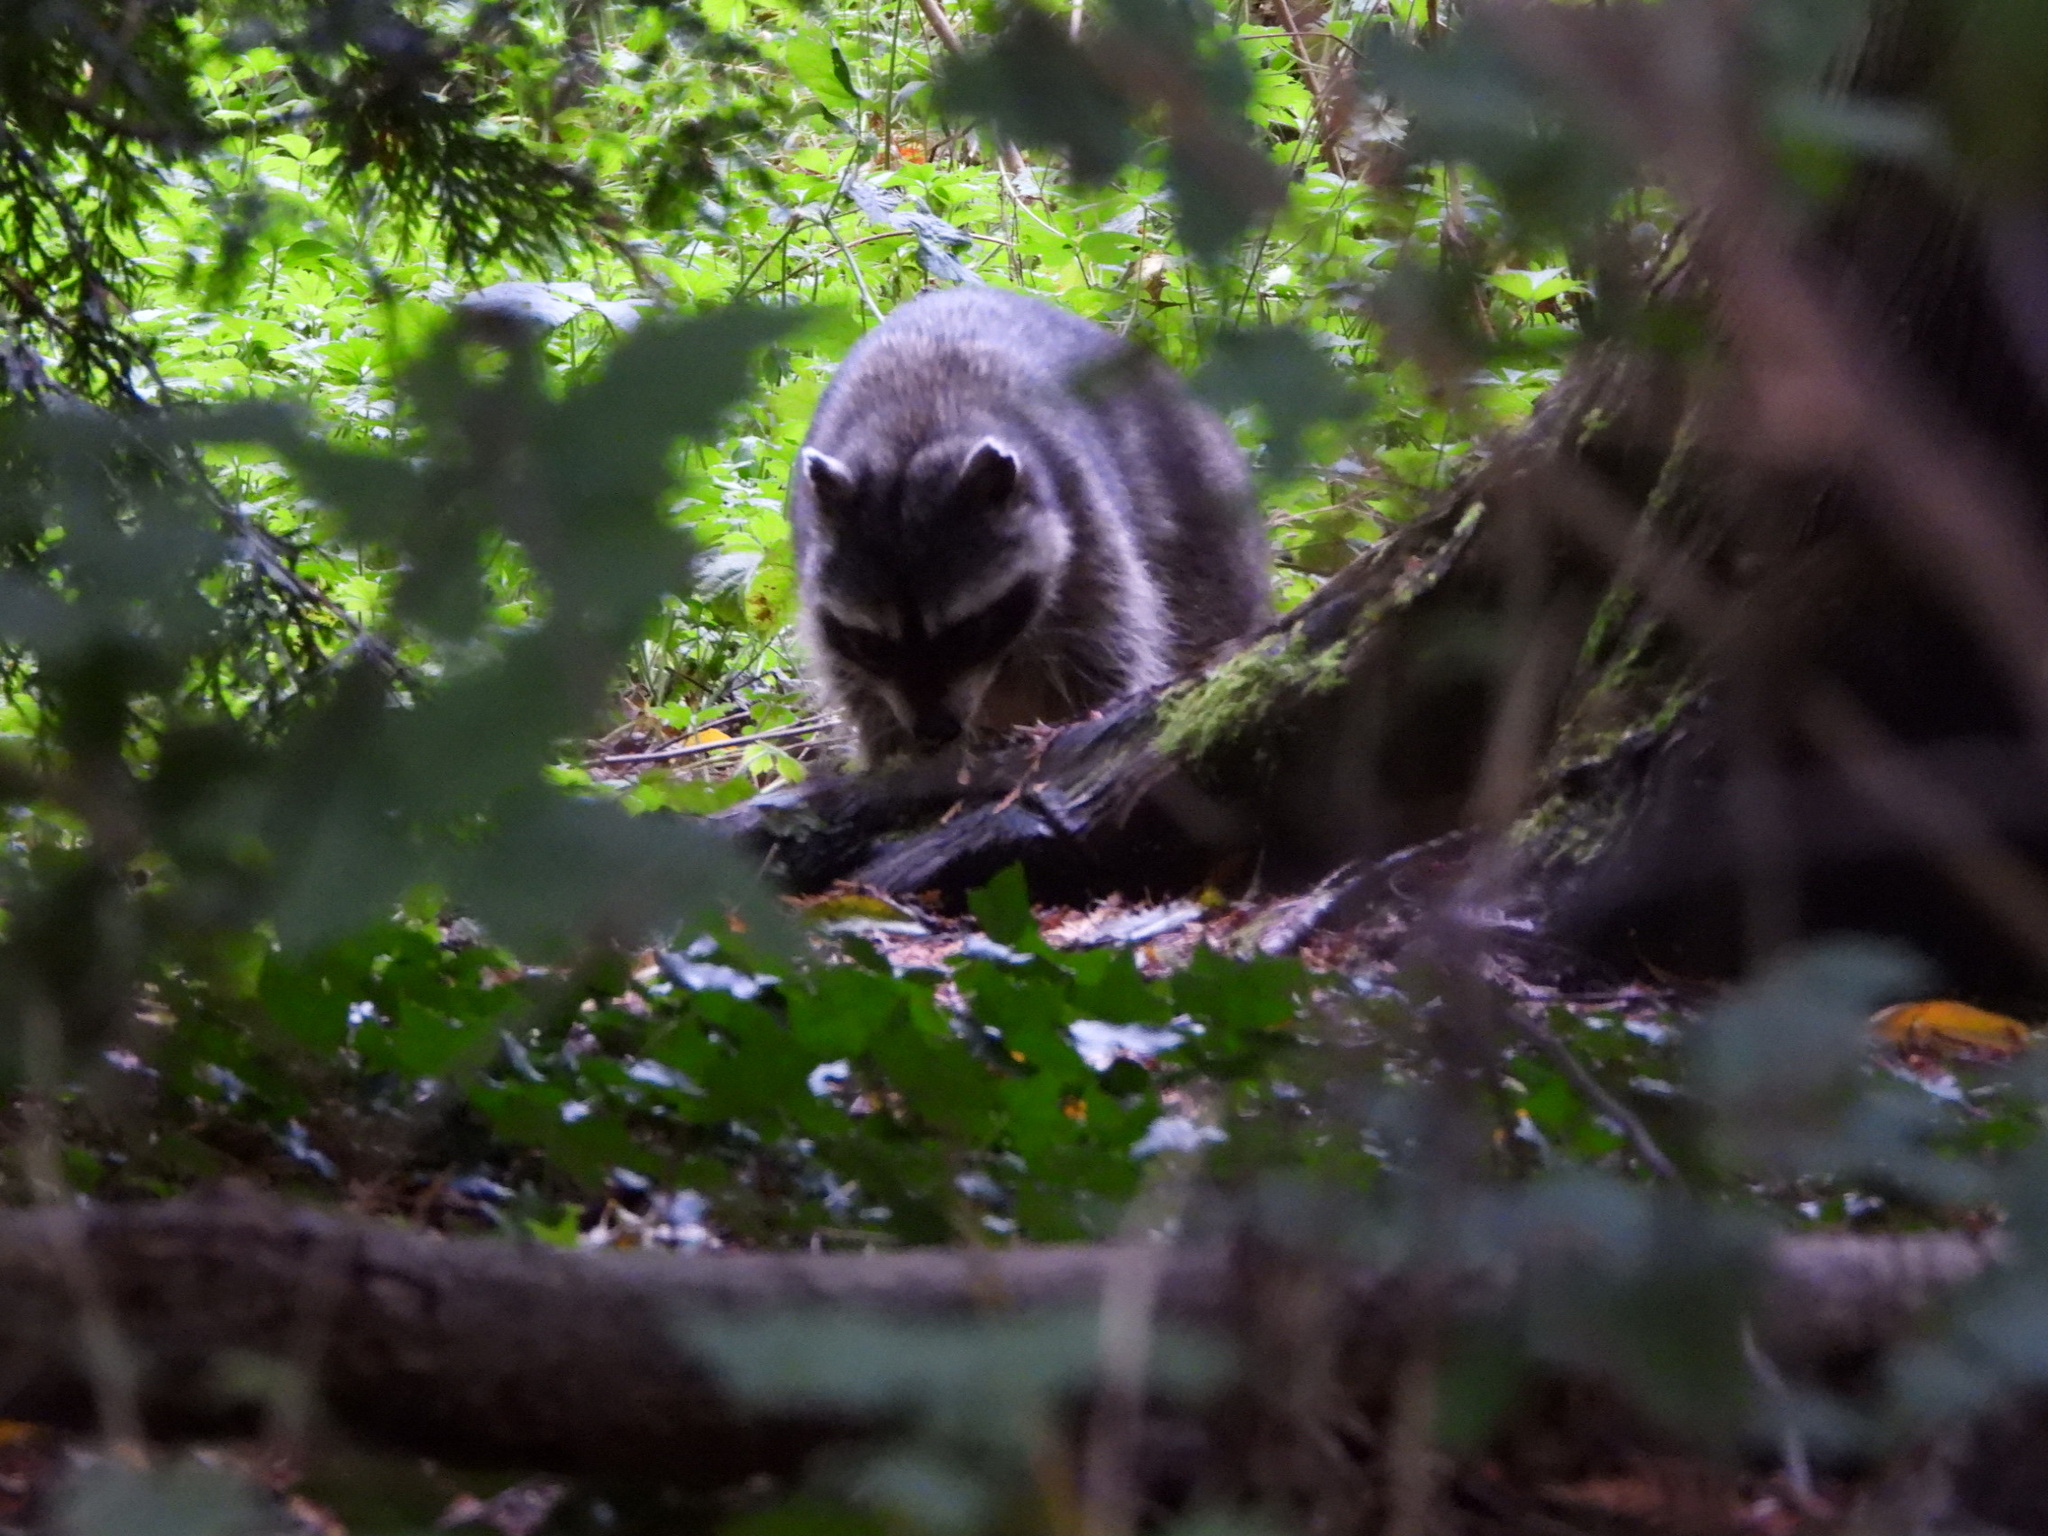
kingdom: Animalia
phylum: Chordata
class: Mammalia
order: Carnivora
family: Procyonidae
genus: Procyon
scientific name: Procyon lotor
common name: Raccoon
